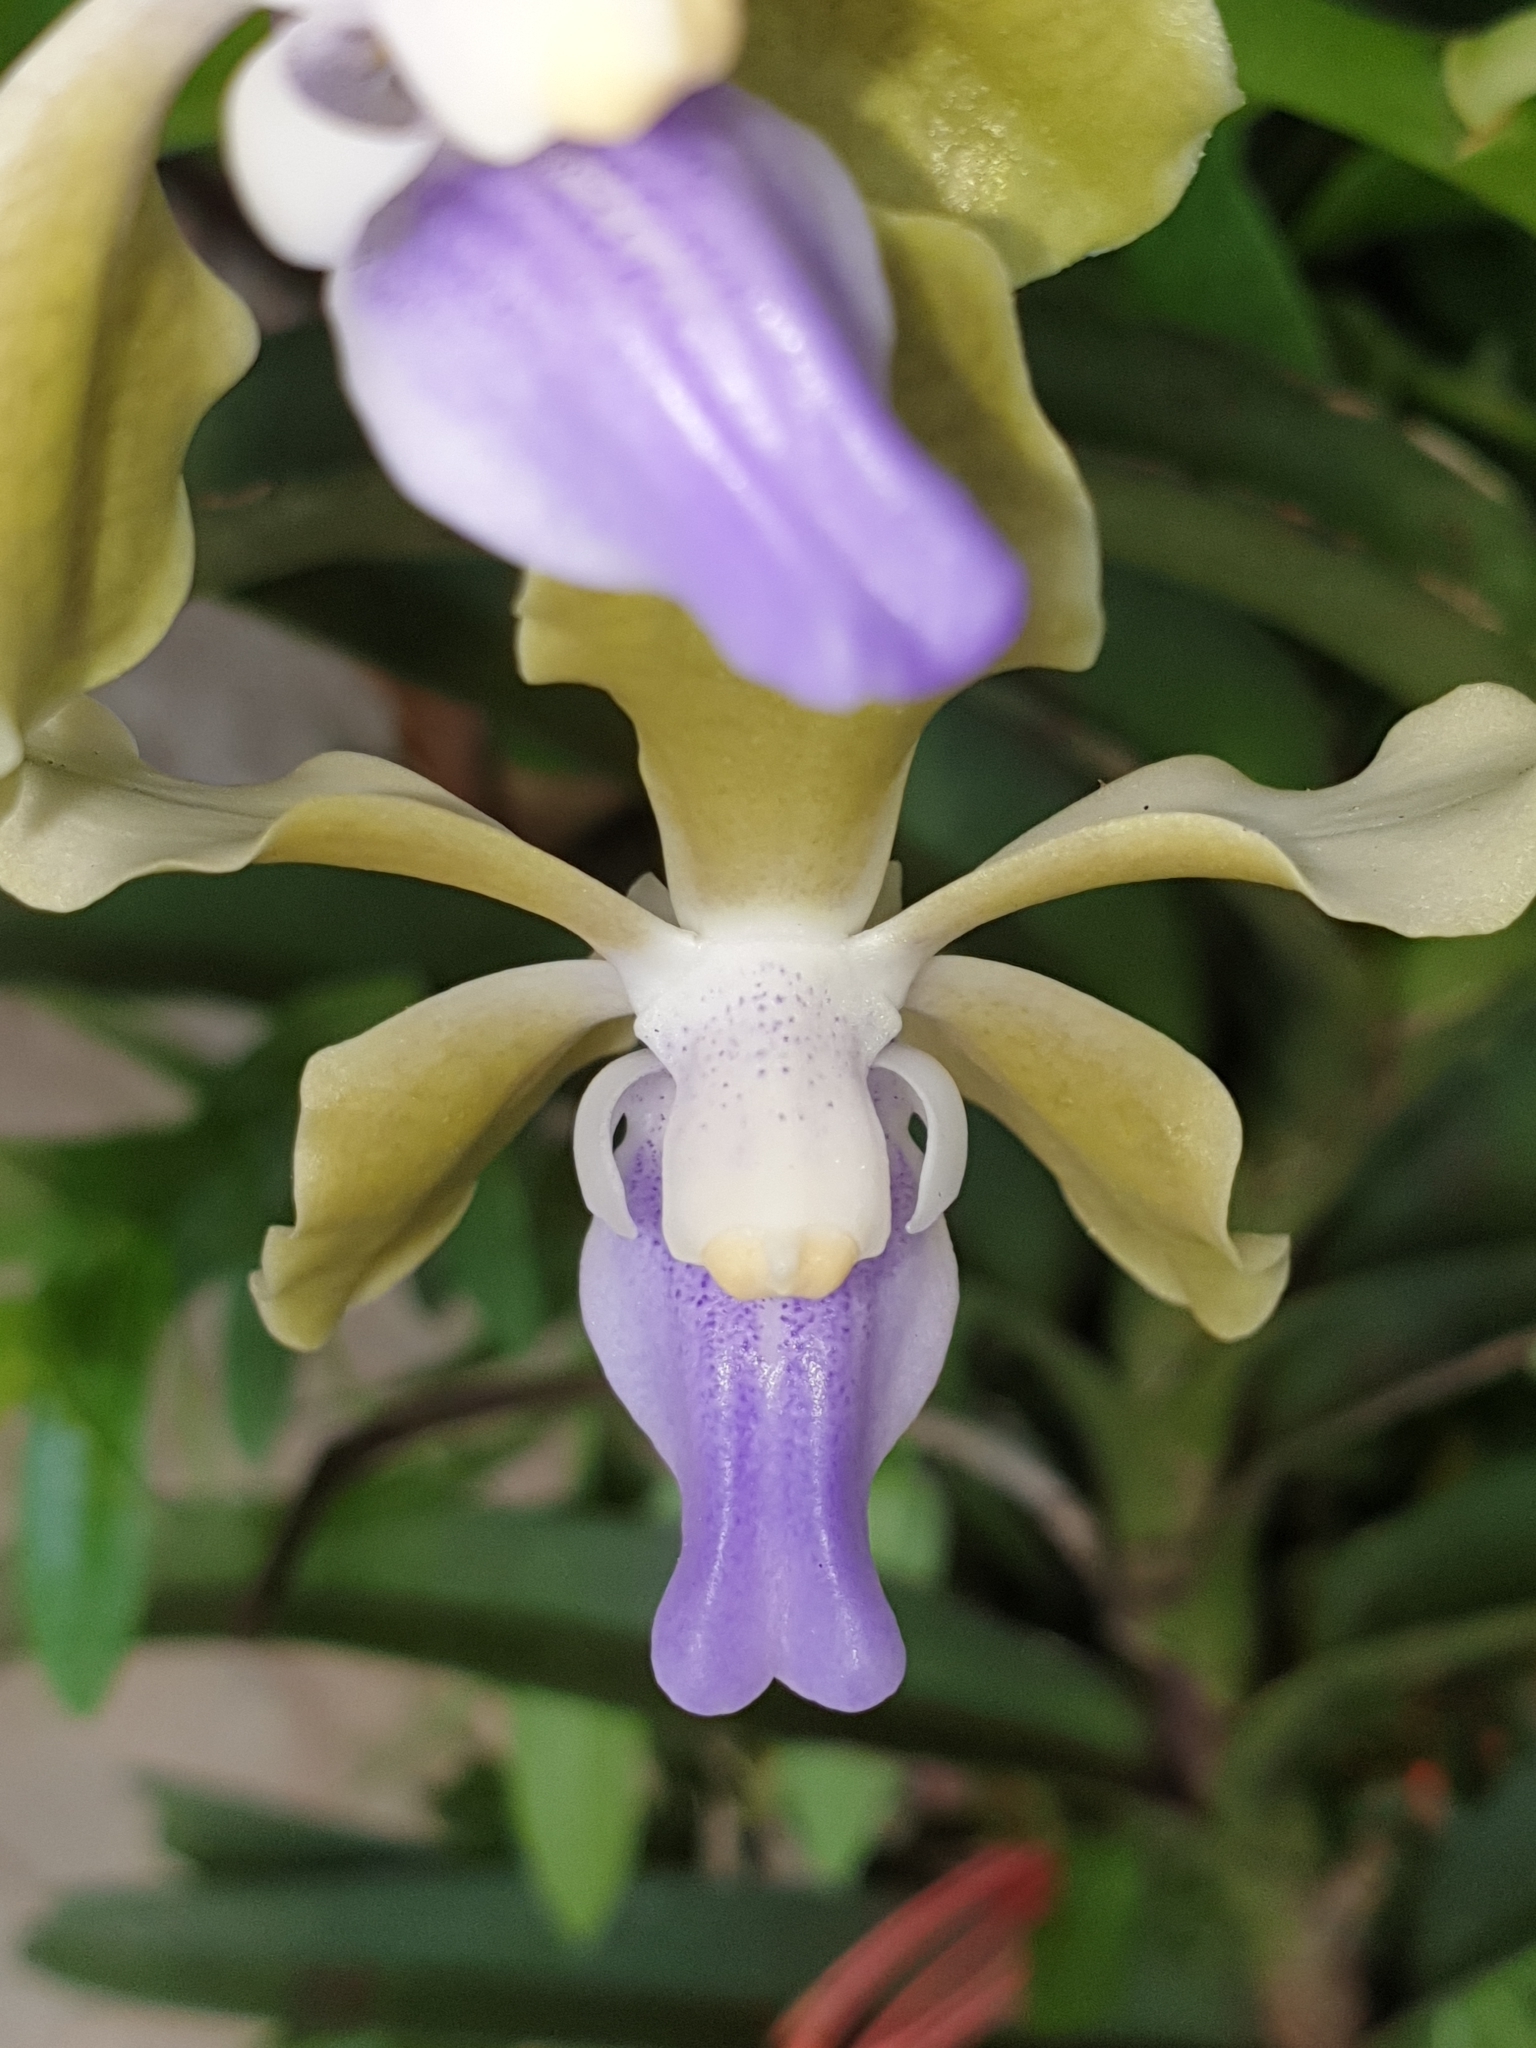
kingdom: Plantae
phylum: Tracheophyta
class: Liliopsida
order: Asparagales
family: Orchidaceae
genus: Vanda
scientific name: Vanda tessellata
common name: Grey orchid
